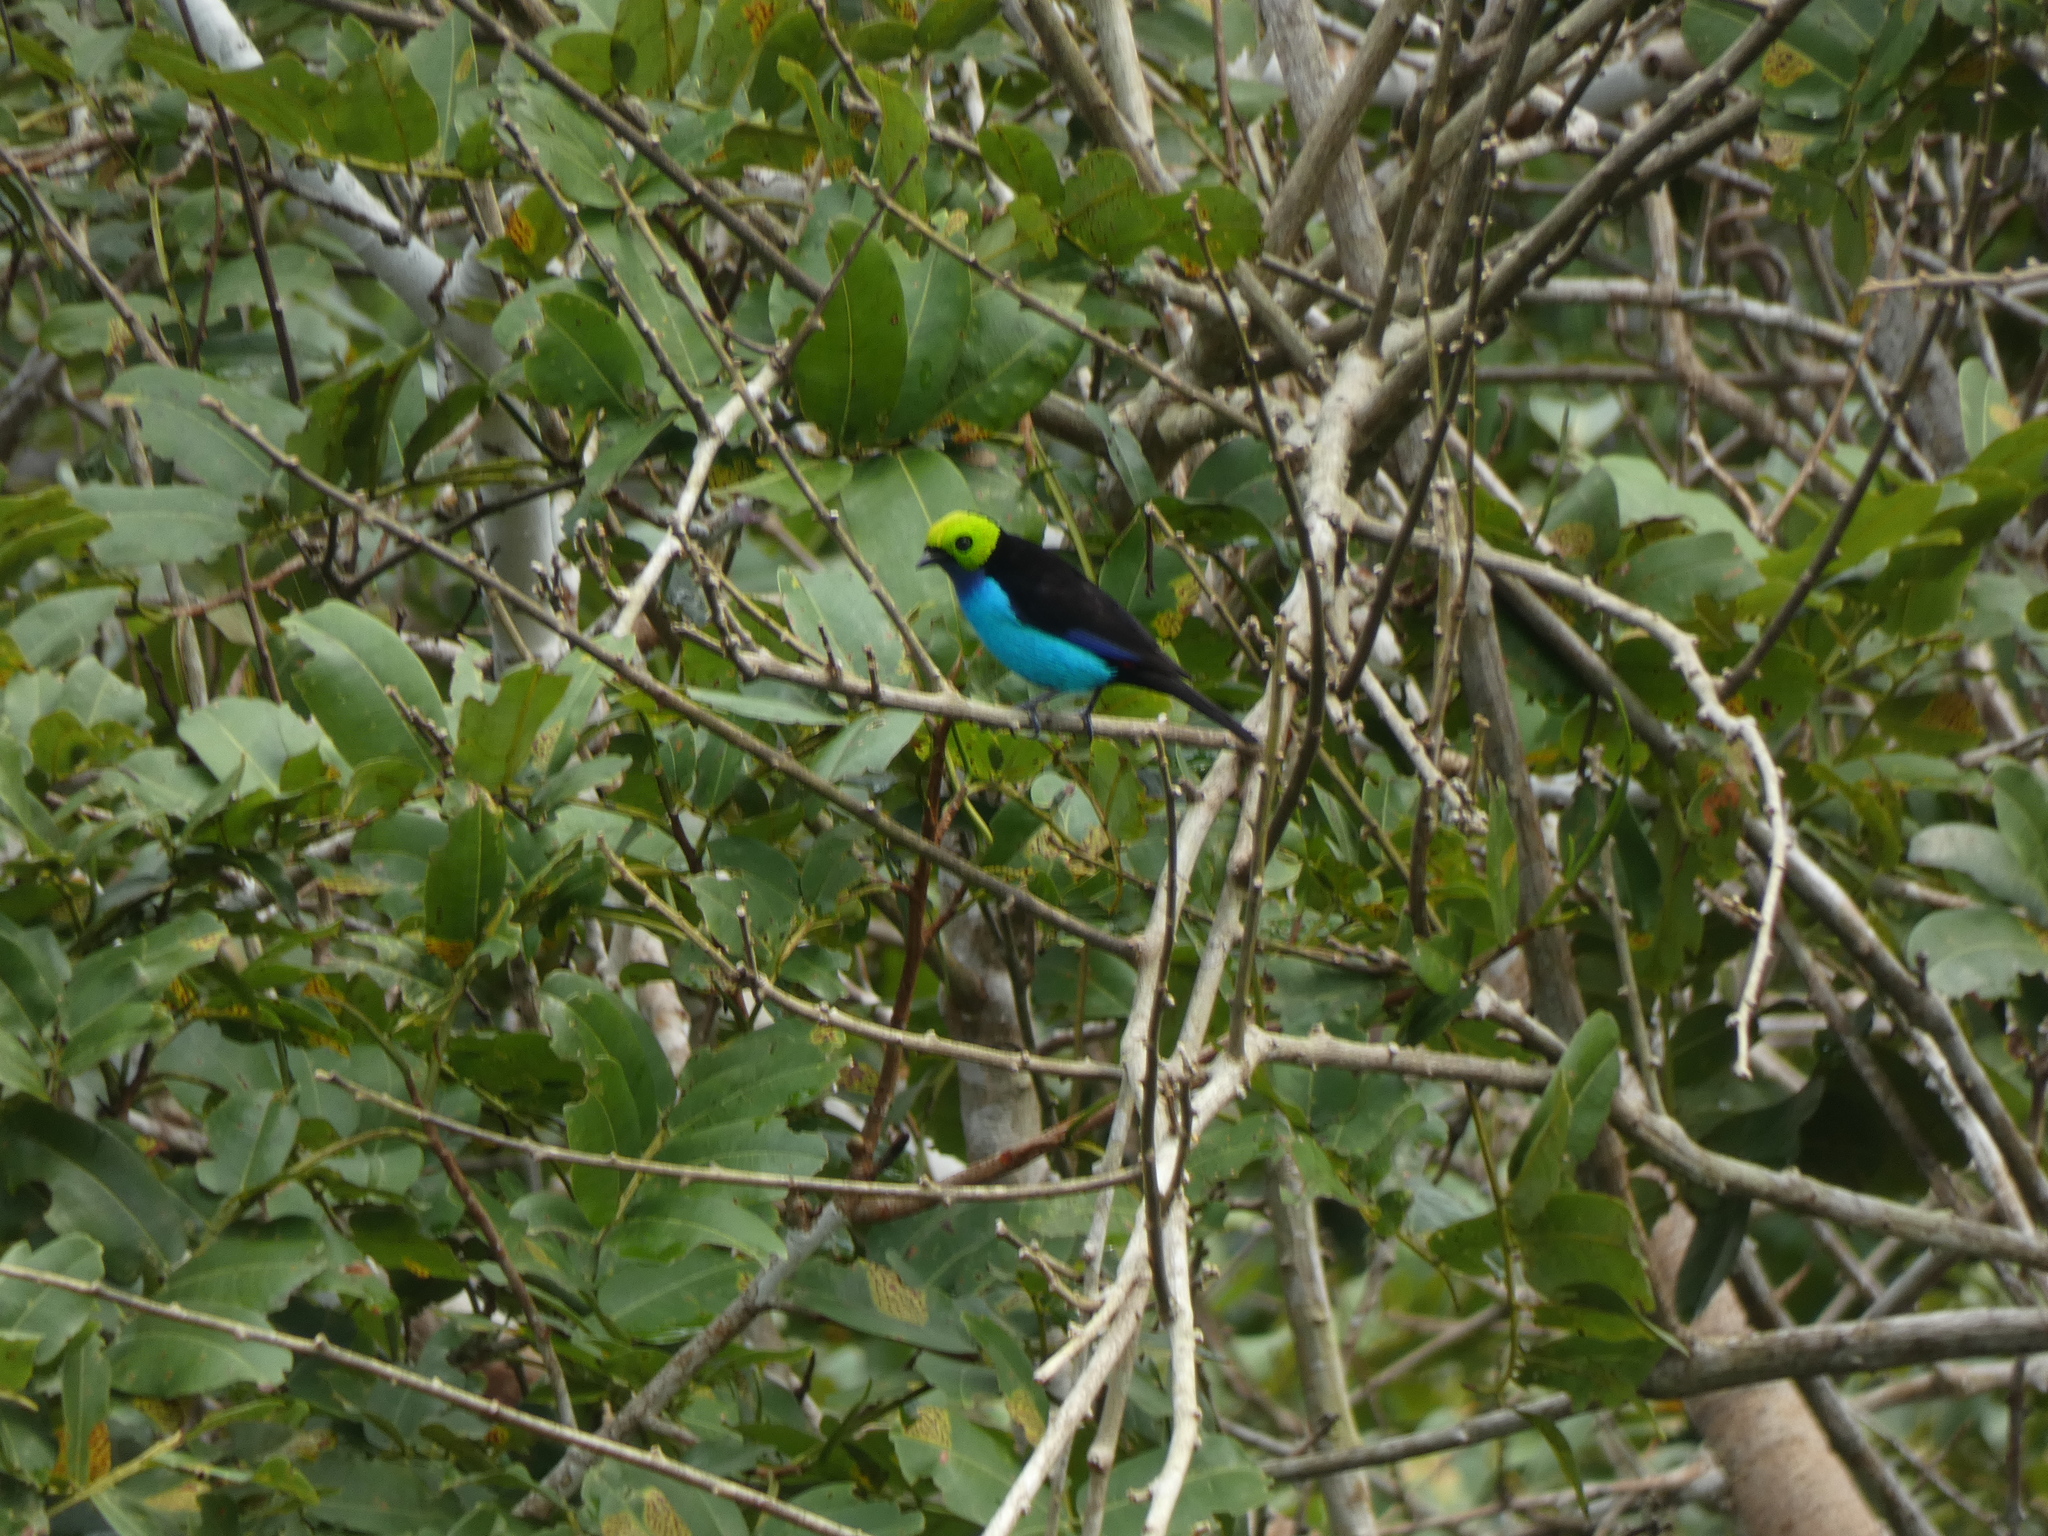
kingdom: Animalia
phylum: Chordata
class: Aves
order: Passeriformes
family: Thraupidae
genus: Tangara
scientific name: Tangara chilensis
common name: Paradise tanager
